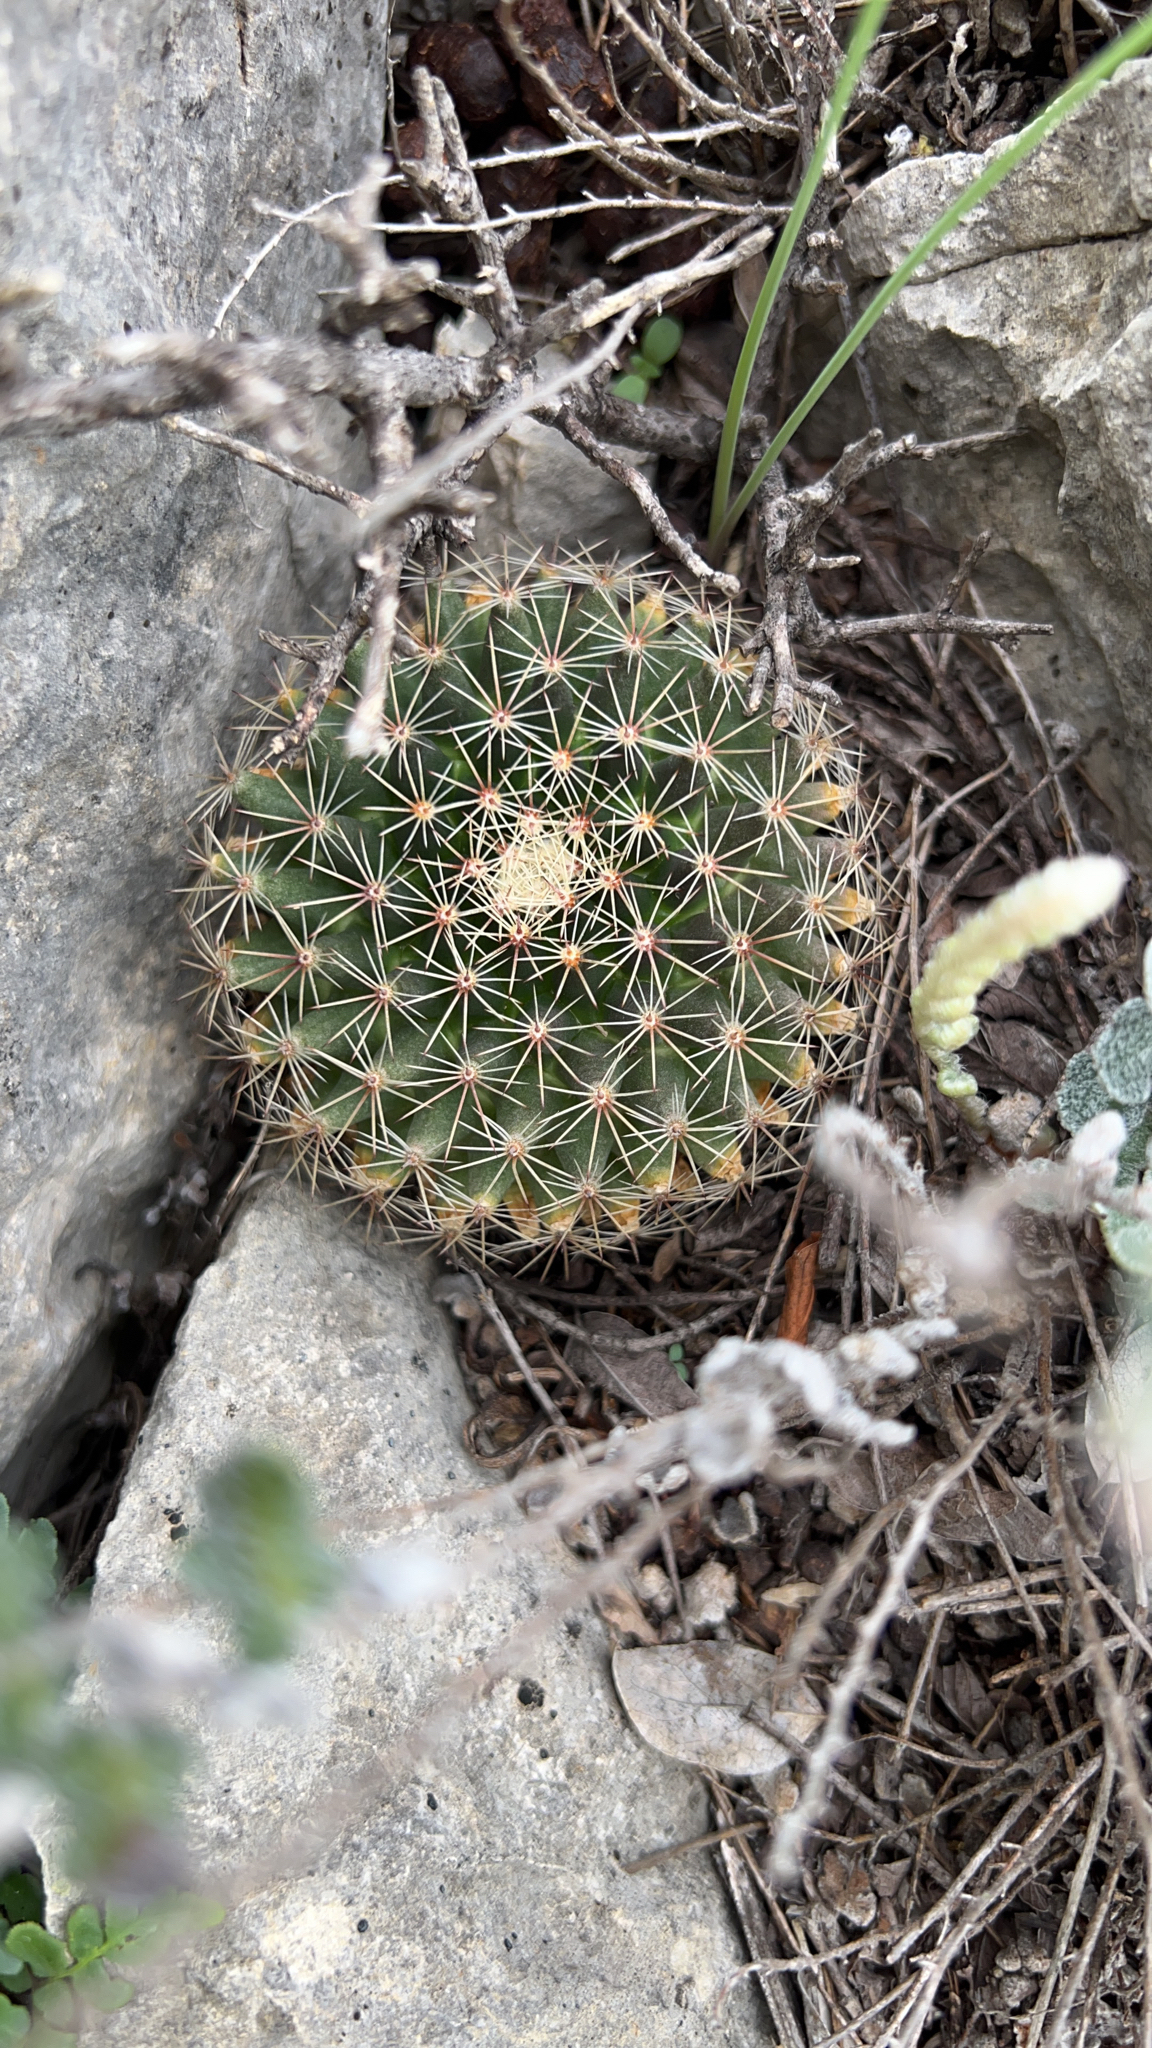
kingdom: Plantae
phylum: Tracheophyta
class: Magnoliopsida
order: Caryophyllales
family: Cactaceae
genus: Mammillaria
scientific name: Mammillaria heyderi
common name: Little nipple cactus
